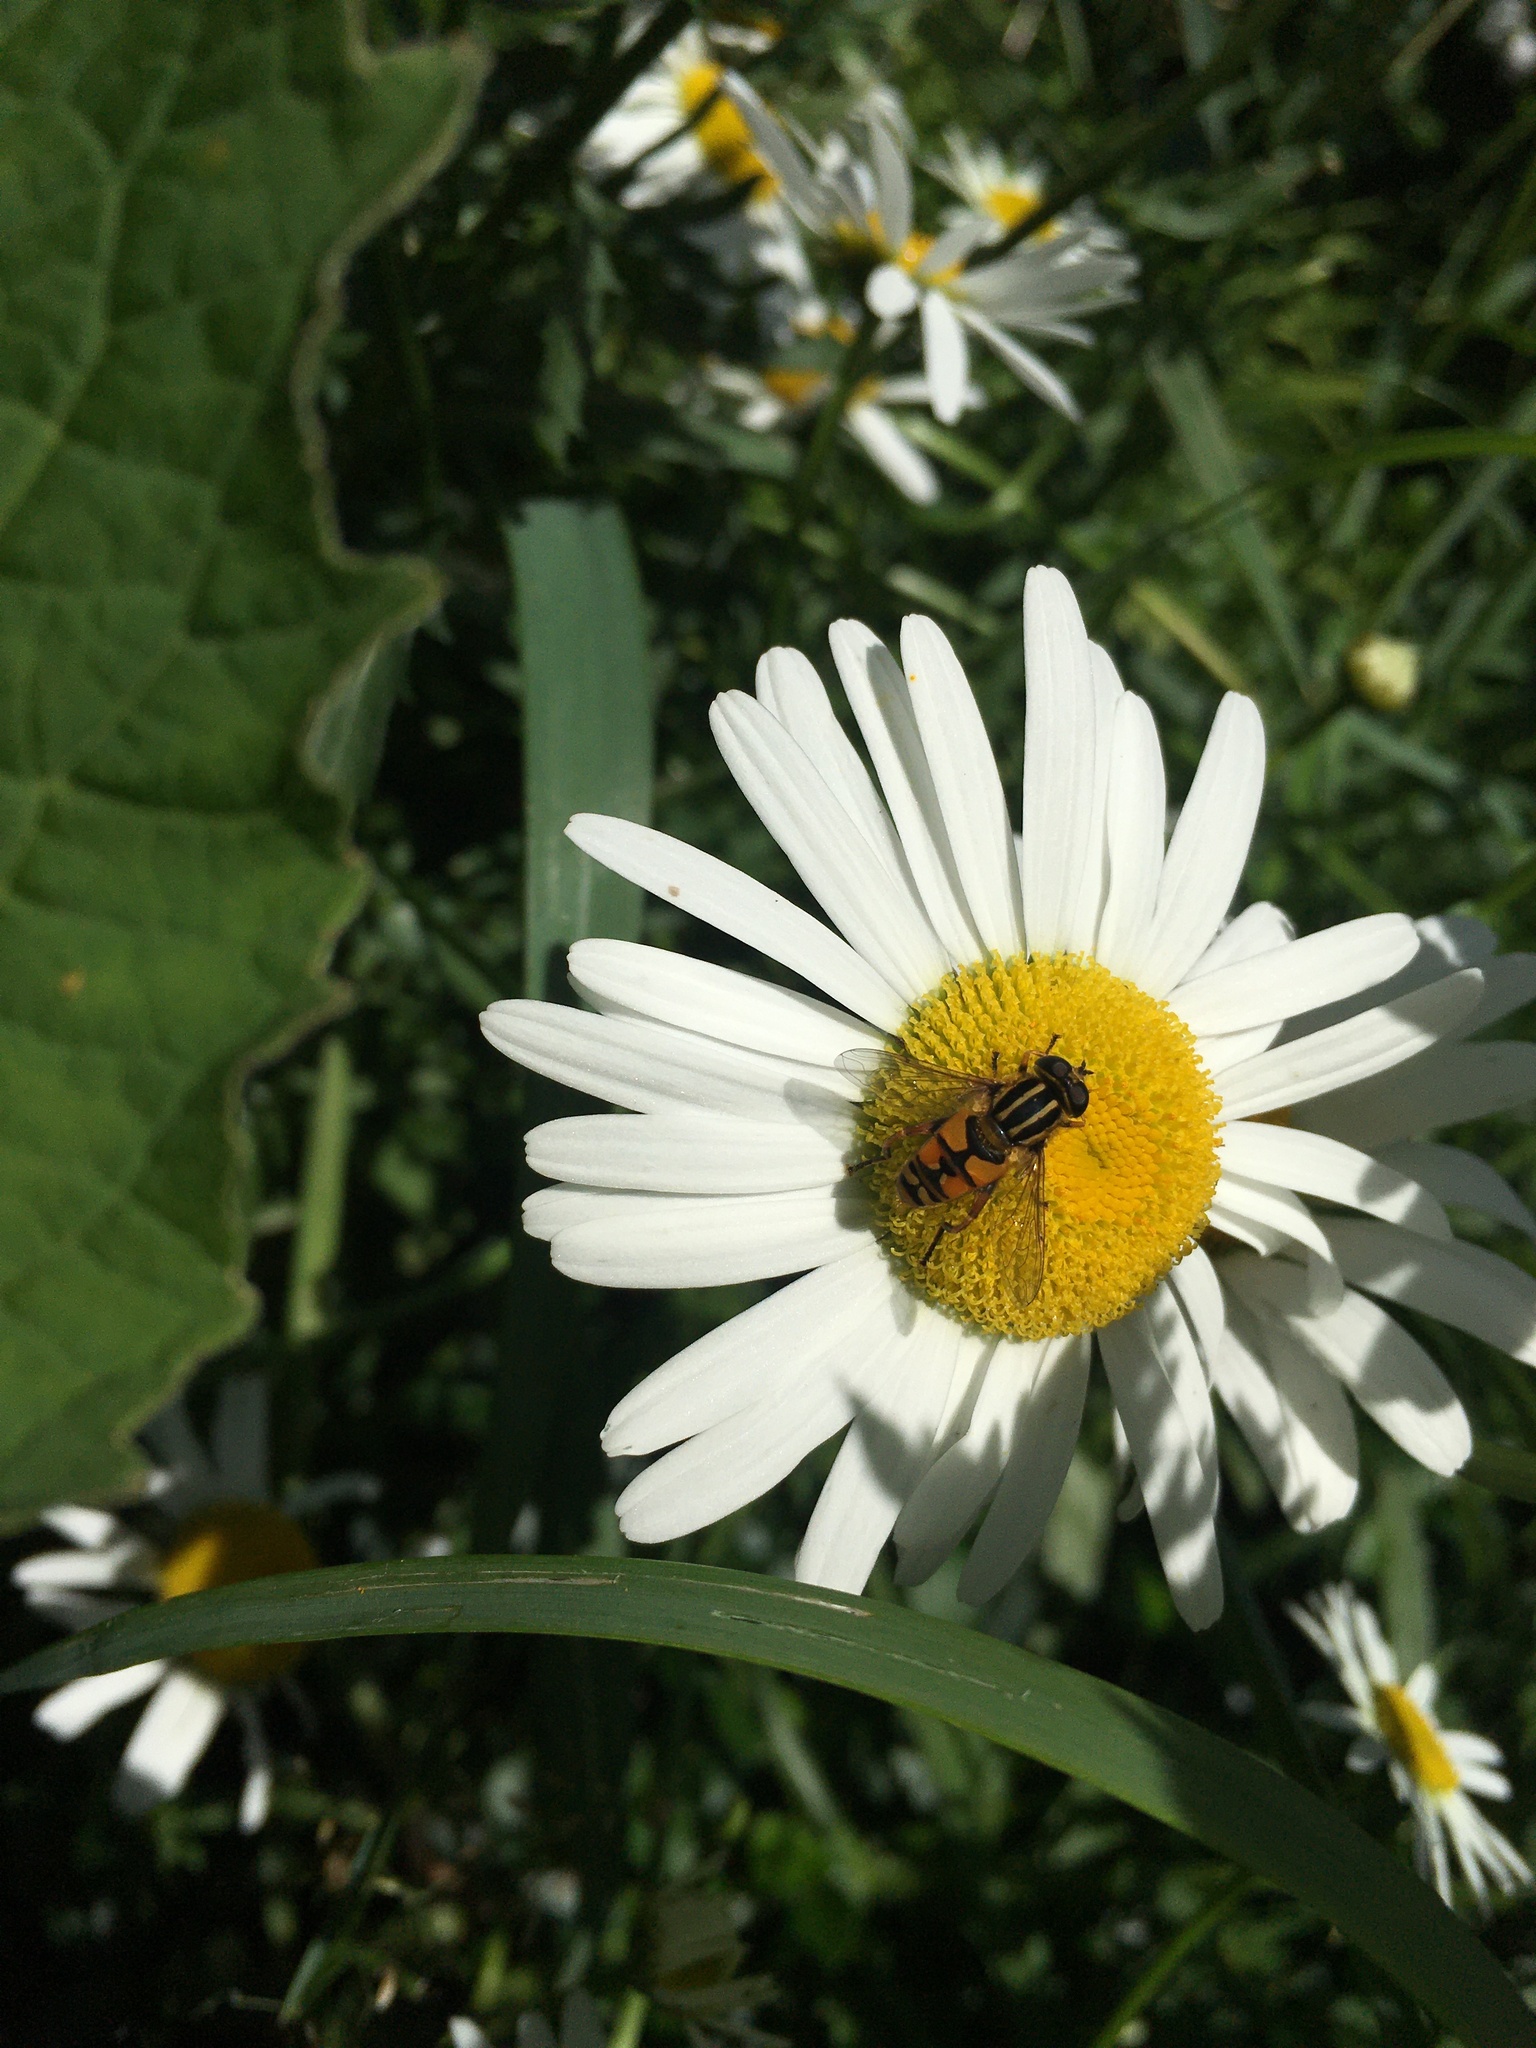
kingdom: Animalia
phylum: Arthropoda
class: Insecta
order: Diptera
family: Syrphidae
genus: Helophilus
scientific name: Helophilus pendulus
